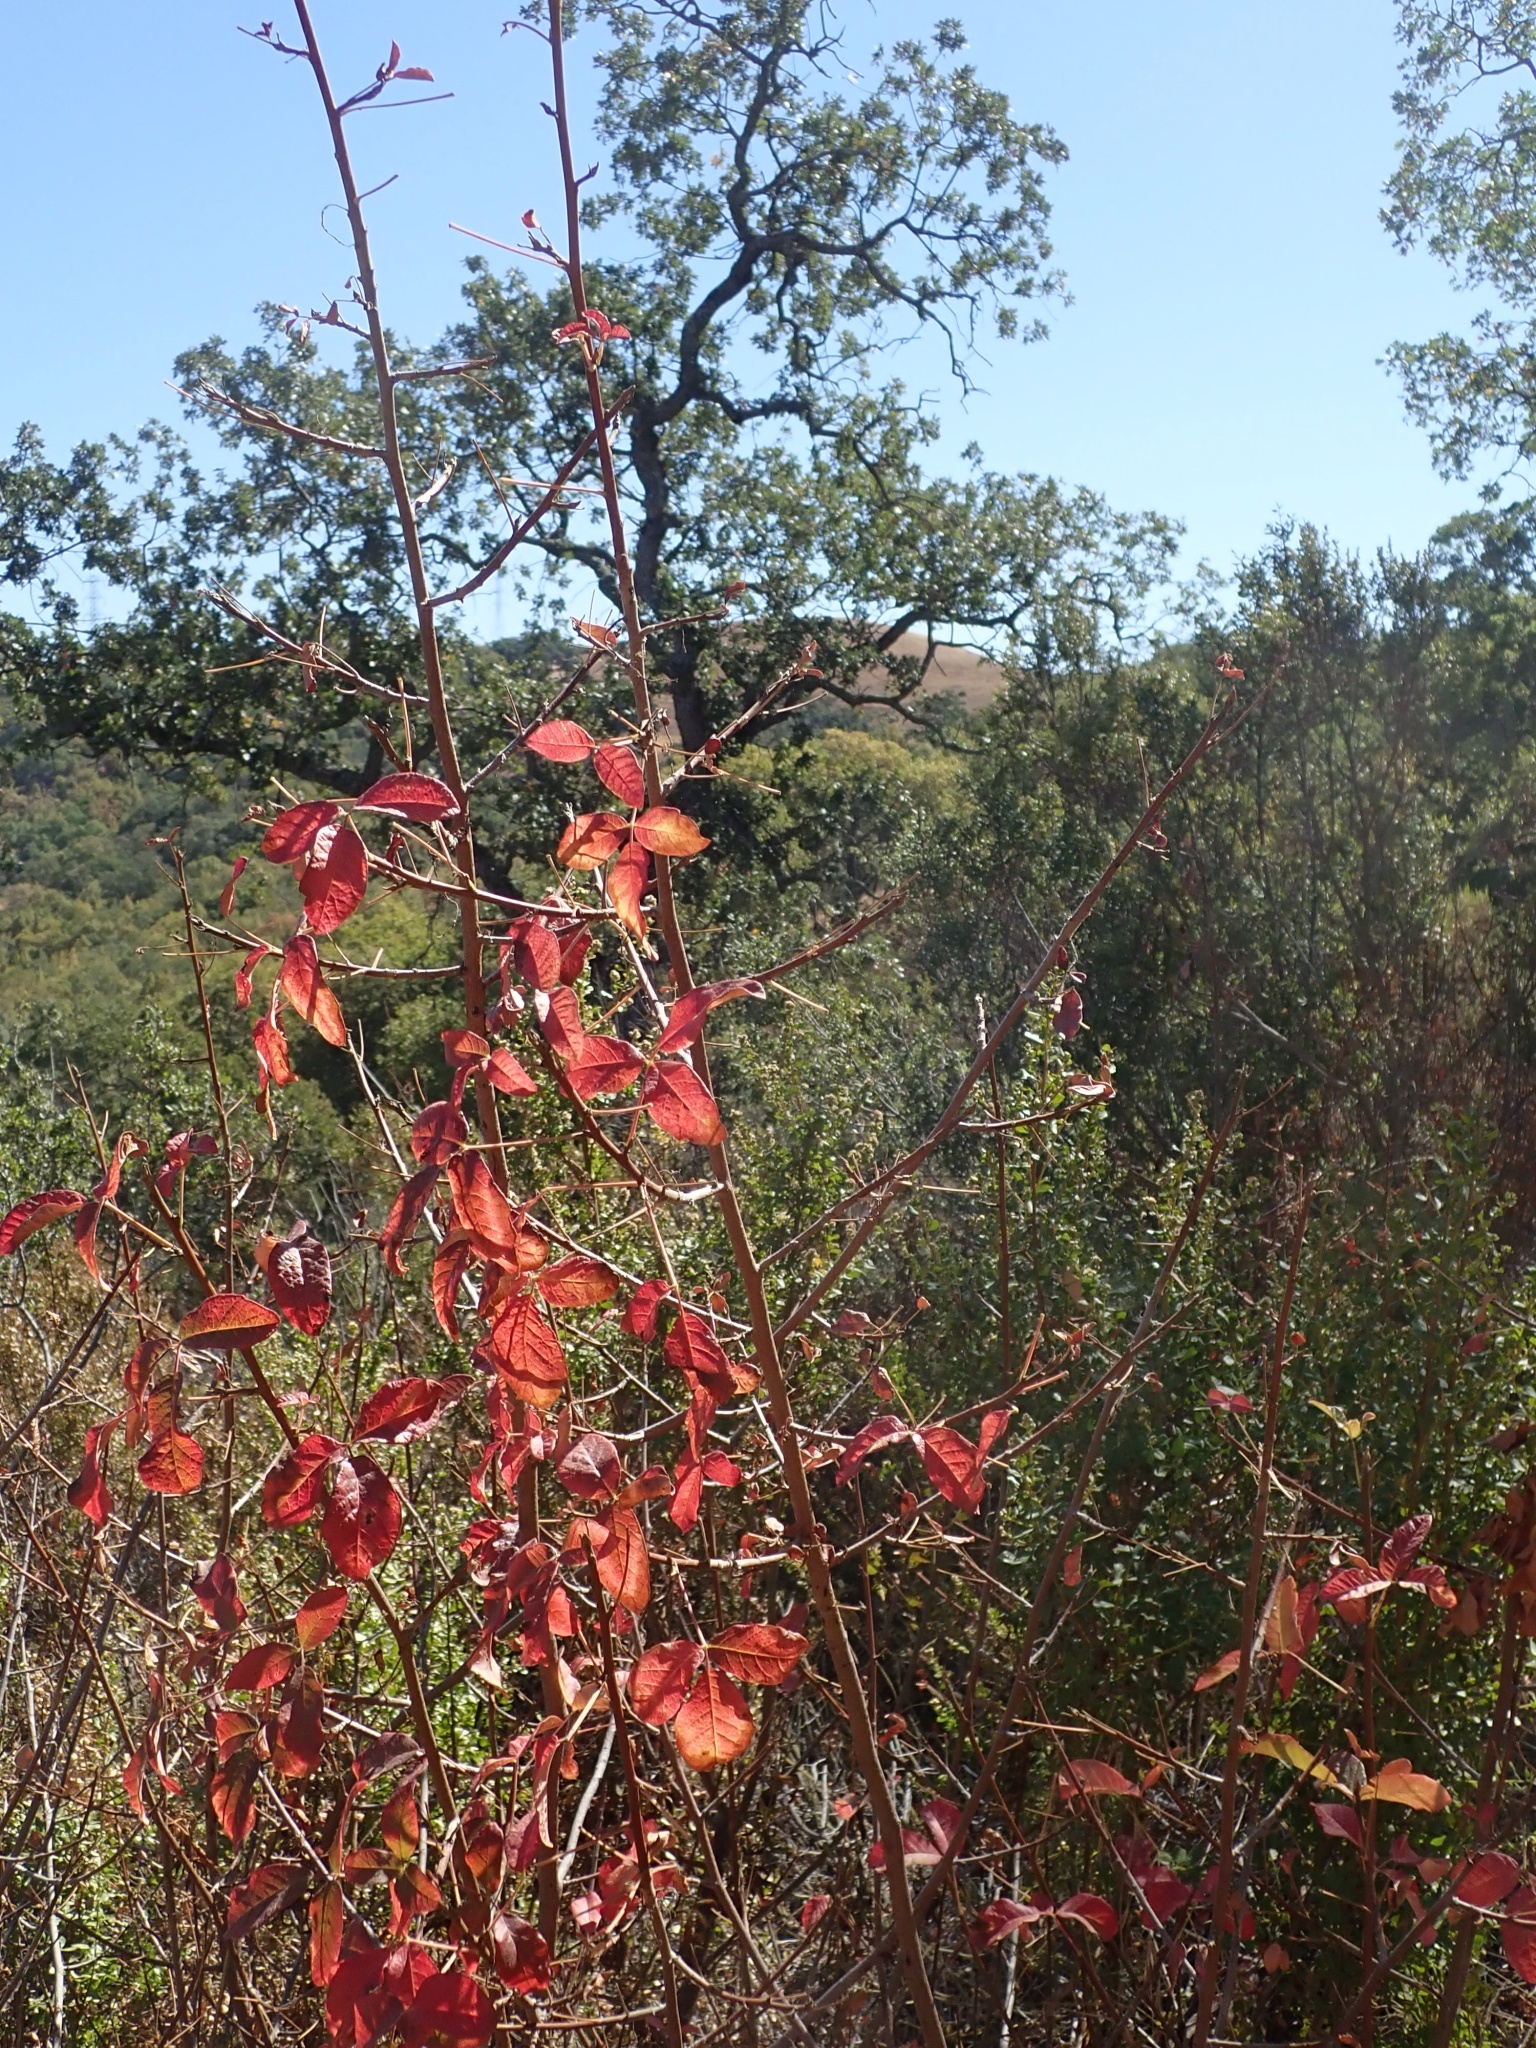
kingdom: Plantae
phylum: Tracheophyta
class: Magnoliopsida
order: Sapindales
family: Anacardiaceae
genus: Toxicodendron
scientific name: Toxicodendron diversilobum
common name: Pacific poison-oak
